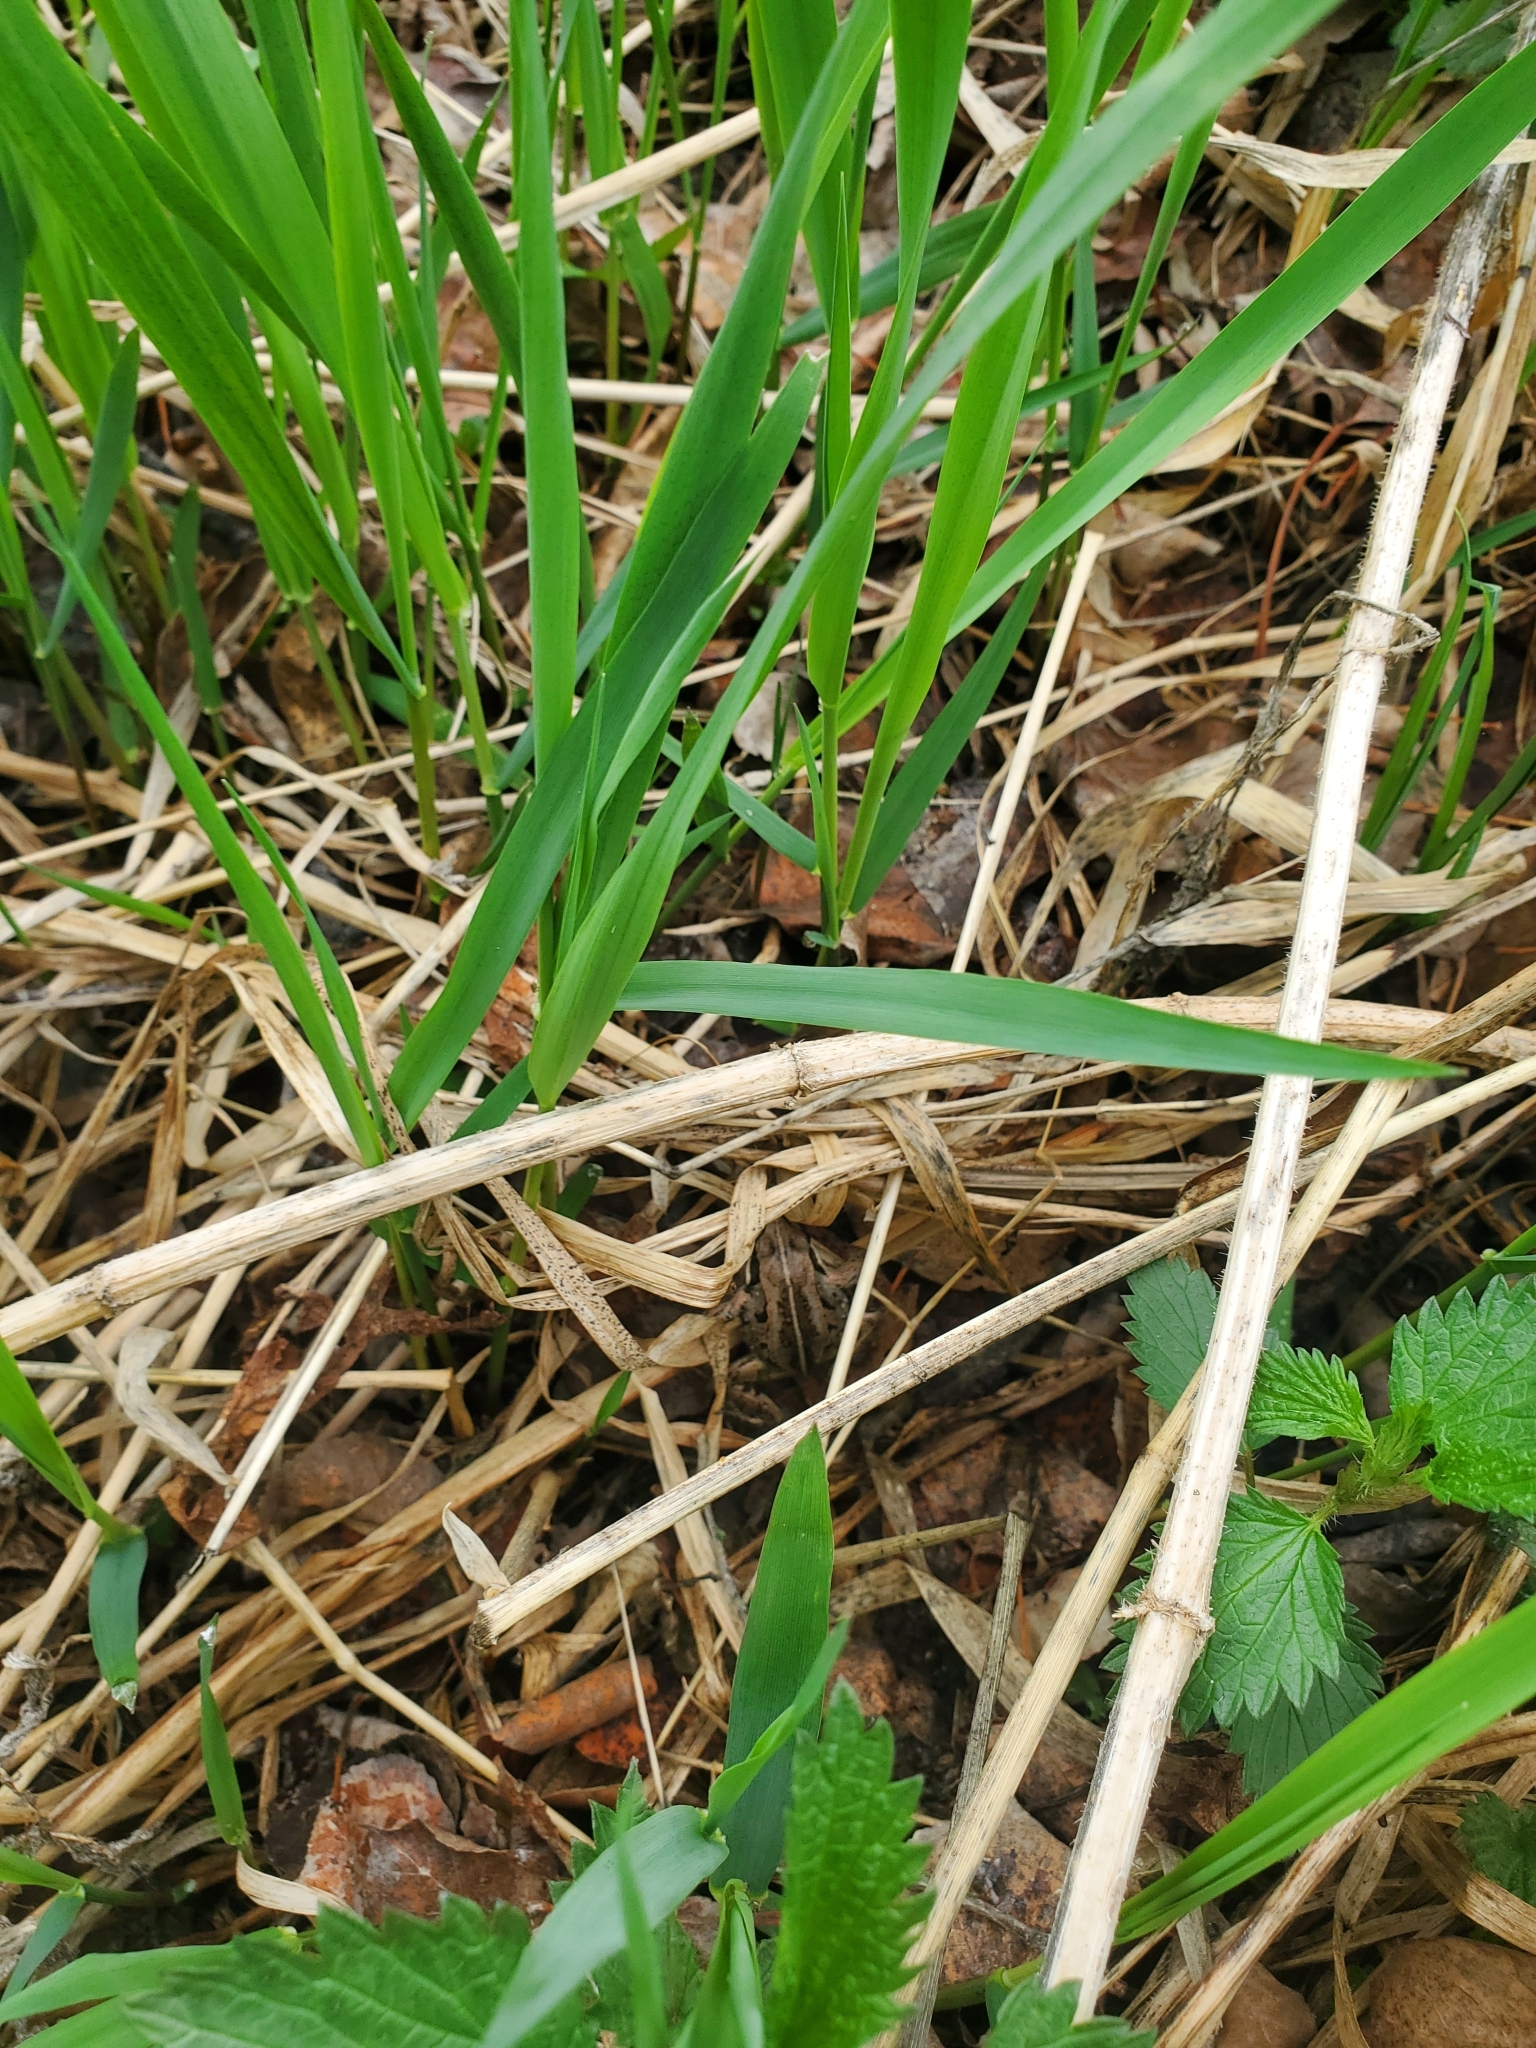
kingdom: Animalia
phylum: Chordata
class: Amphibia
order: Anura
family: Ranidae
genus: Lithobates
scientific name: Lithobates sylvaticus
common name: Wood frog
